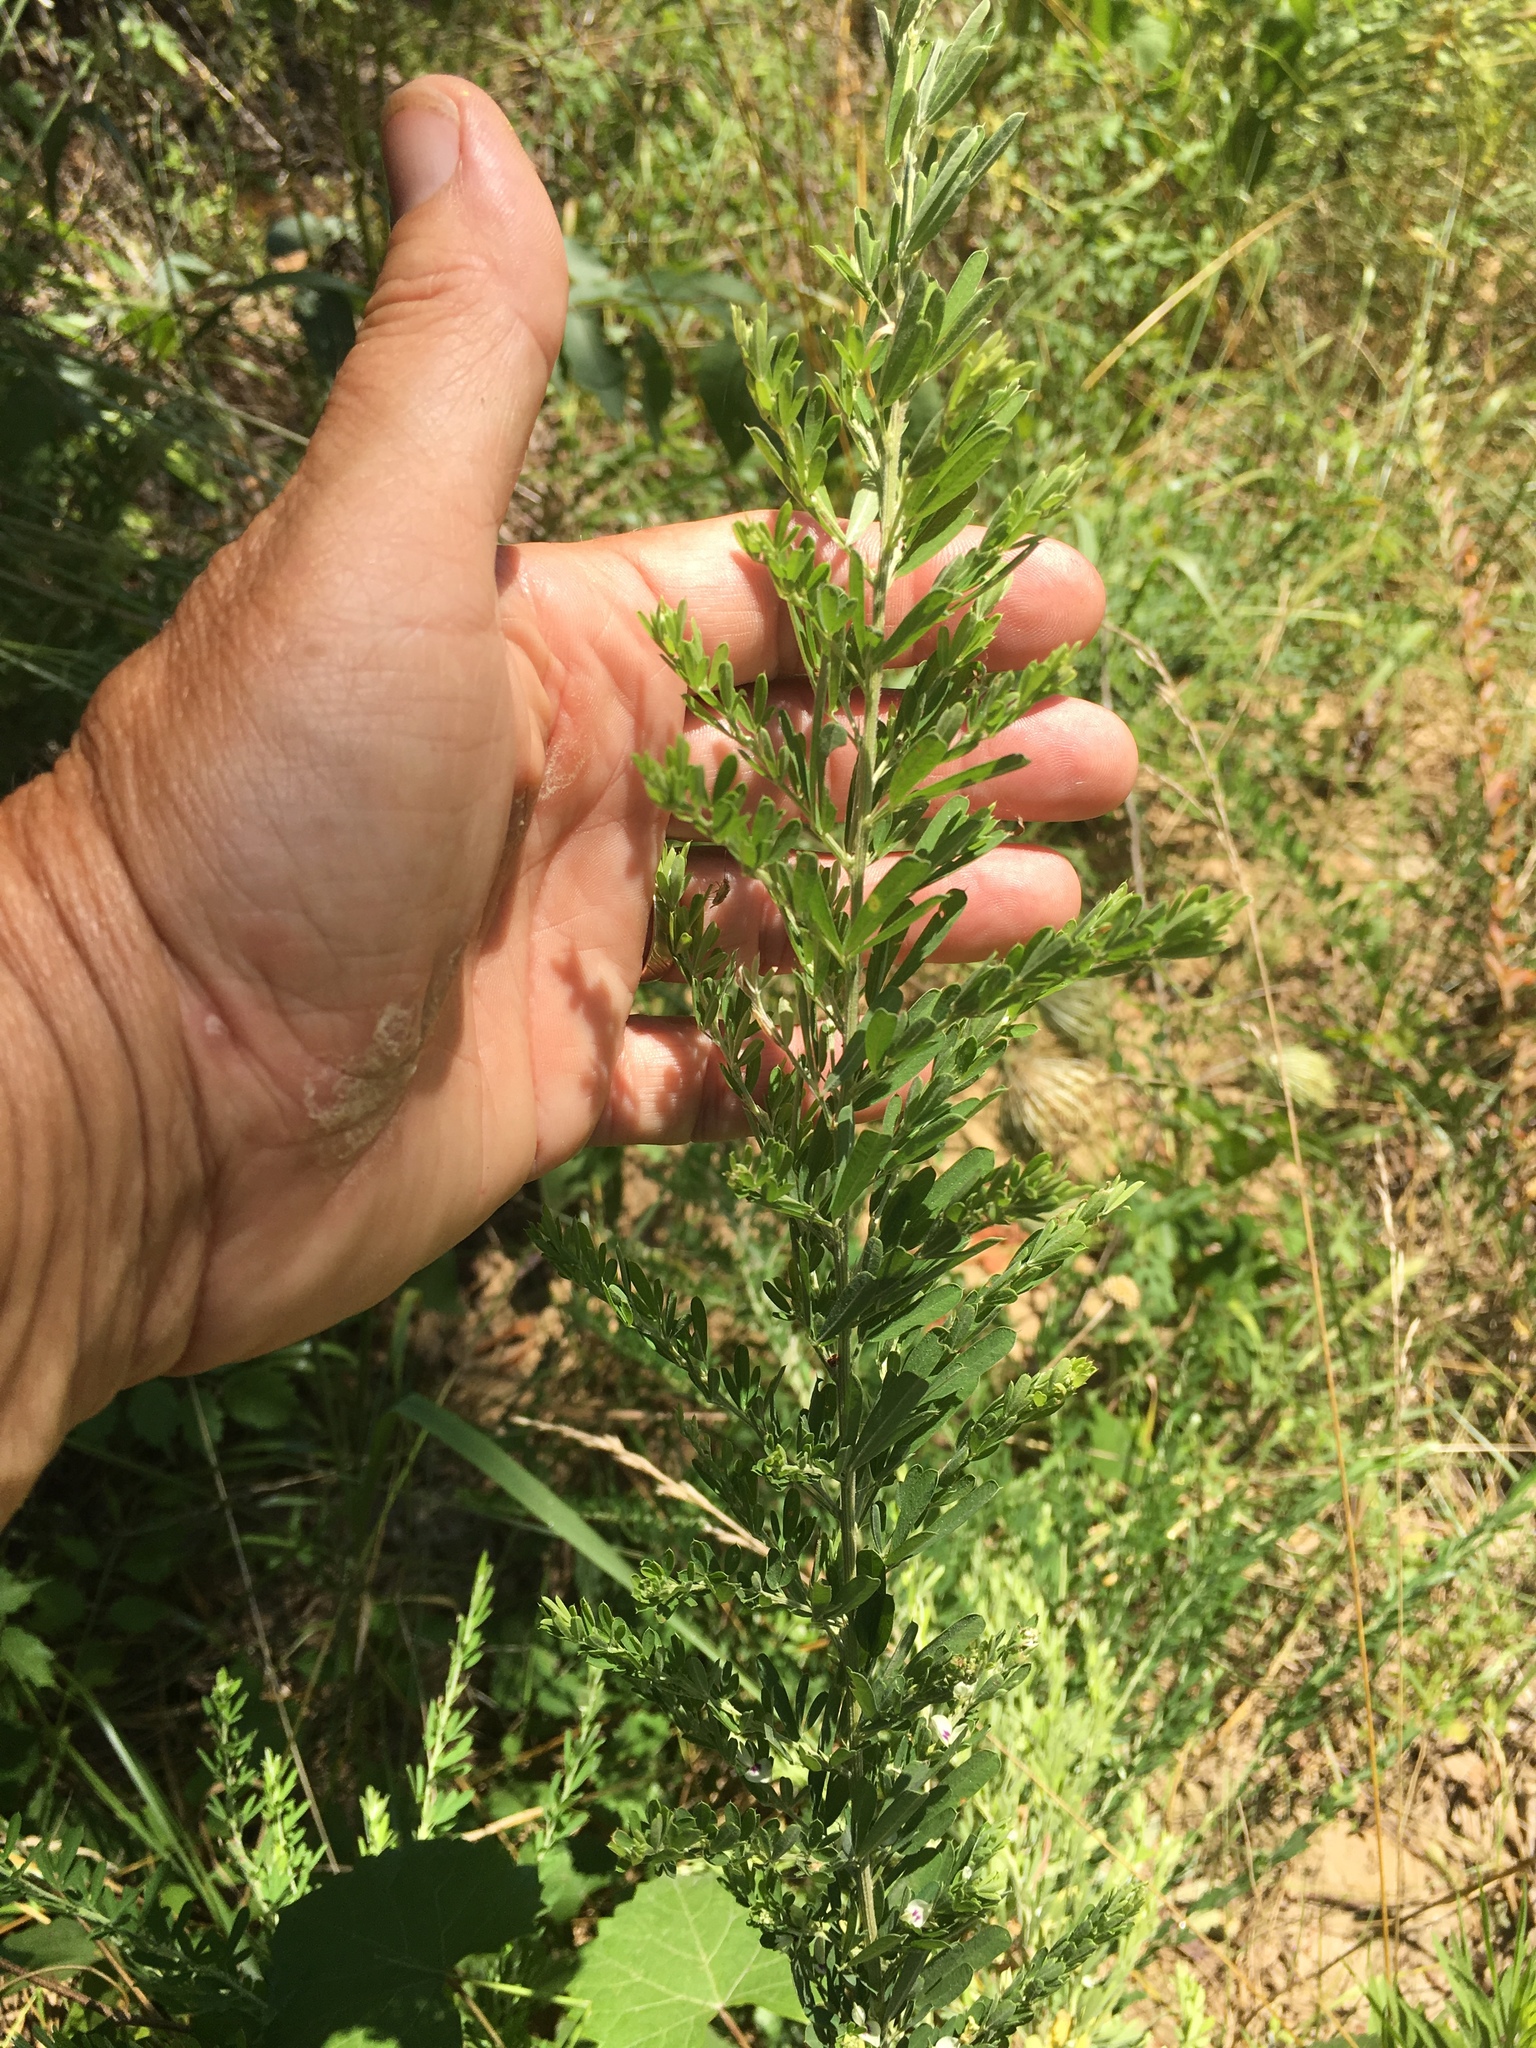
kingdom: Plantae
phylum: Tracheophyta
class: Magnoliopsida
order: Fabales
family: Fabaceae
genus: Lespedeza
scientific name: Lespedeza cuneata
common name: Chinese bush-clover
